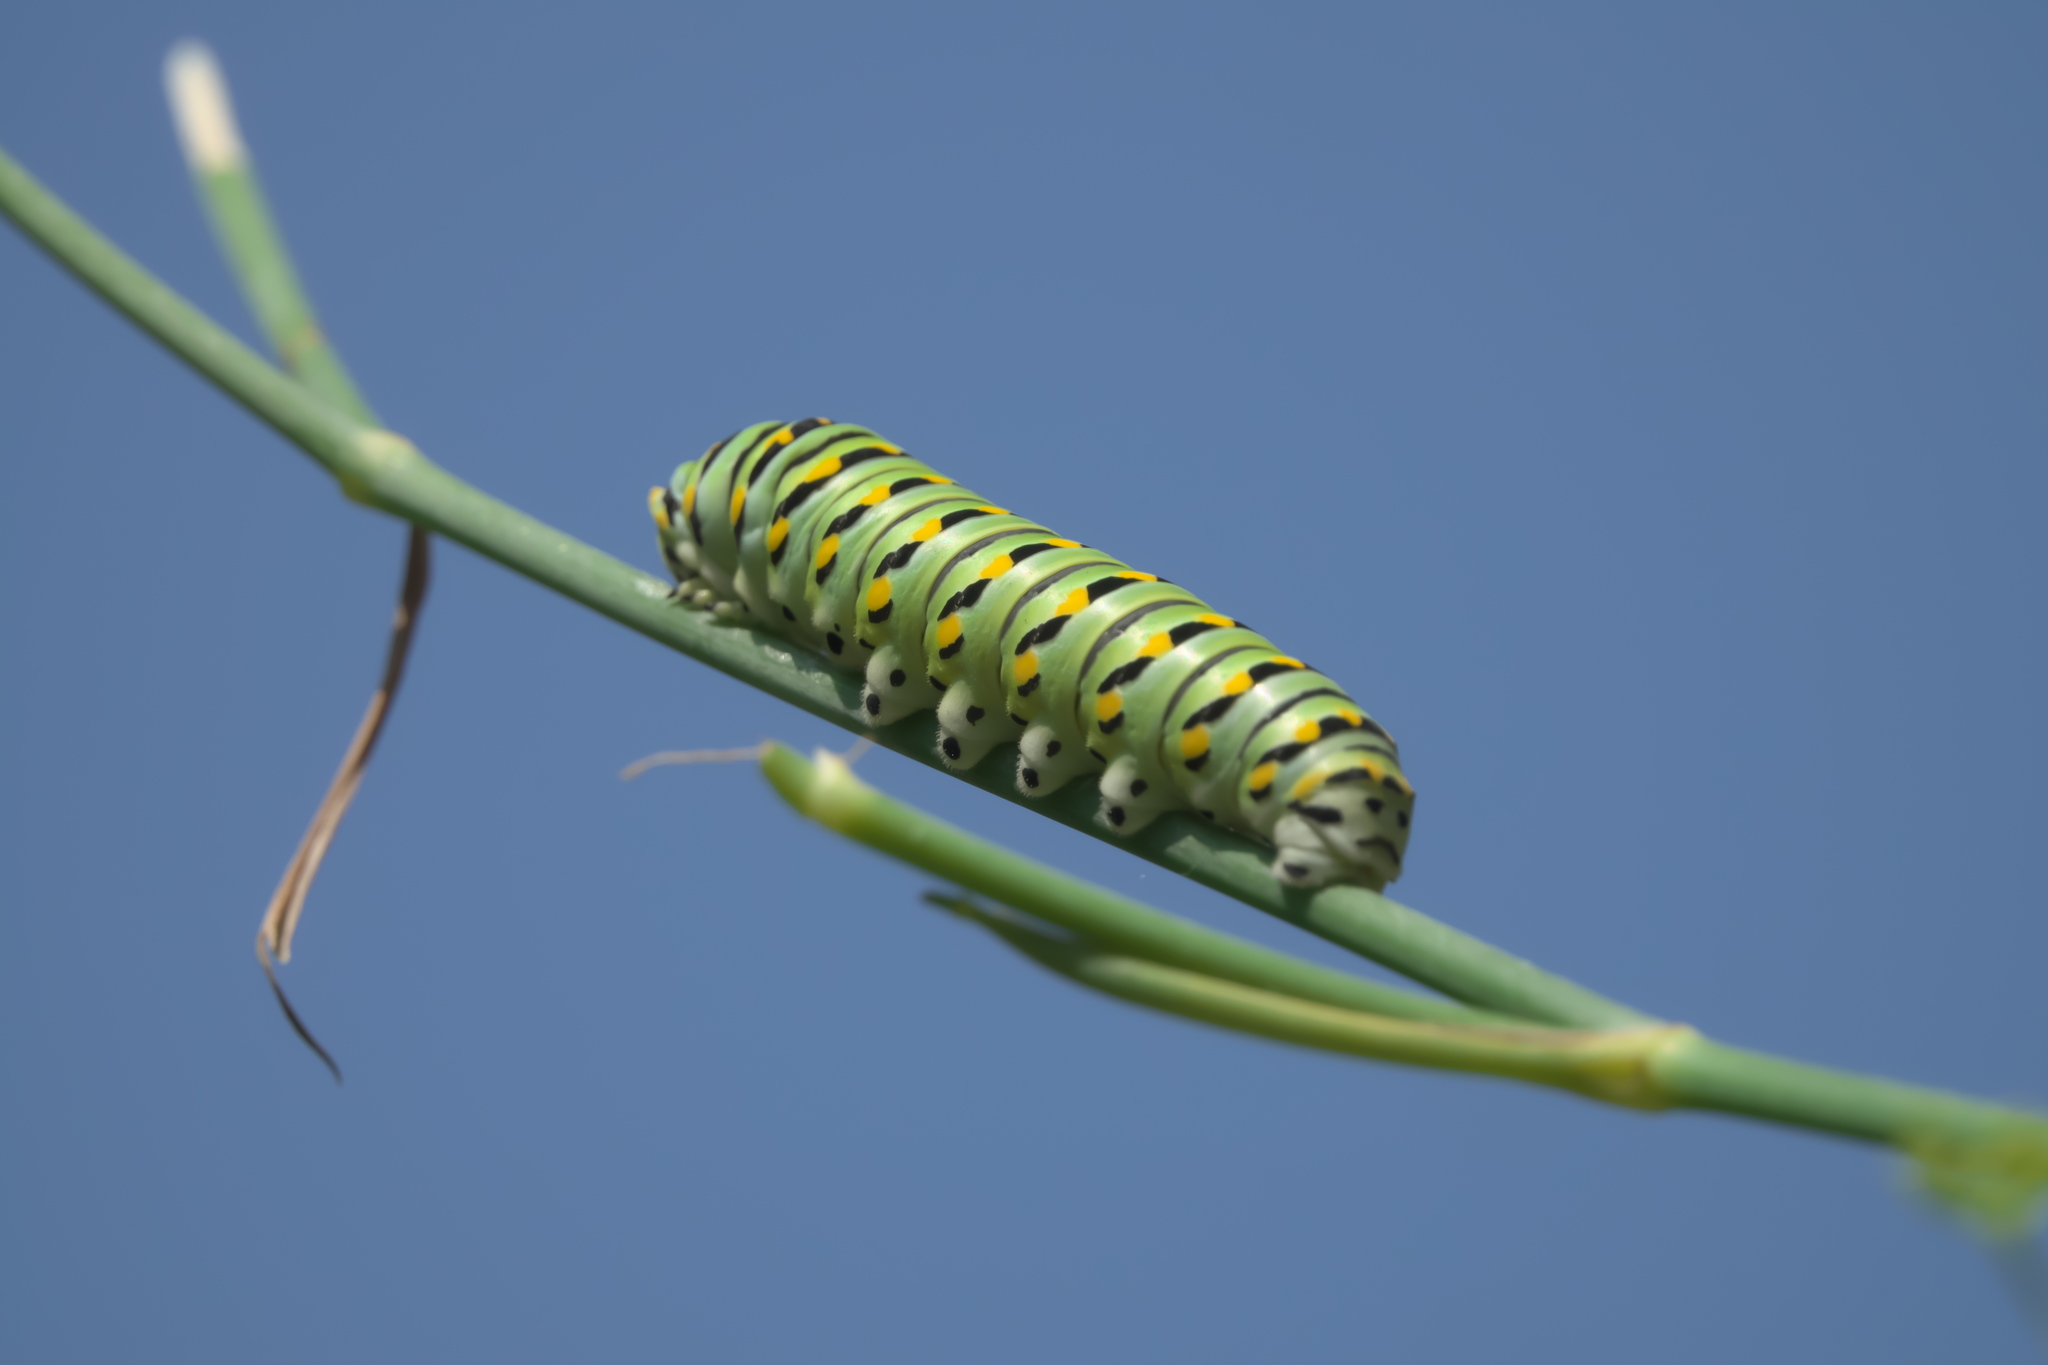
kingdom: Animalia
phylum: Arthropoda
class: Insecta
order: Lepidoptera
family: Papilionidae
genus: Papilio
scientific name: Papilio polyxenes
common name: Black swallowtail
